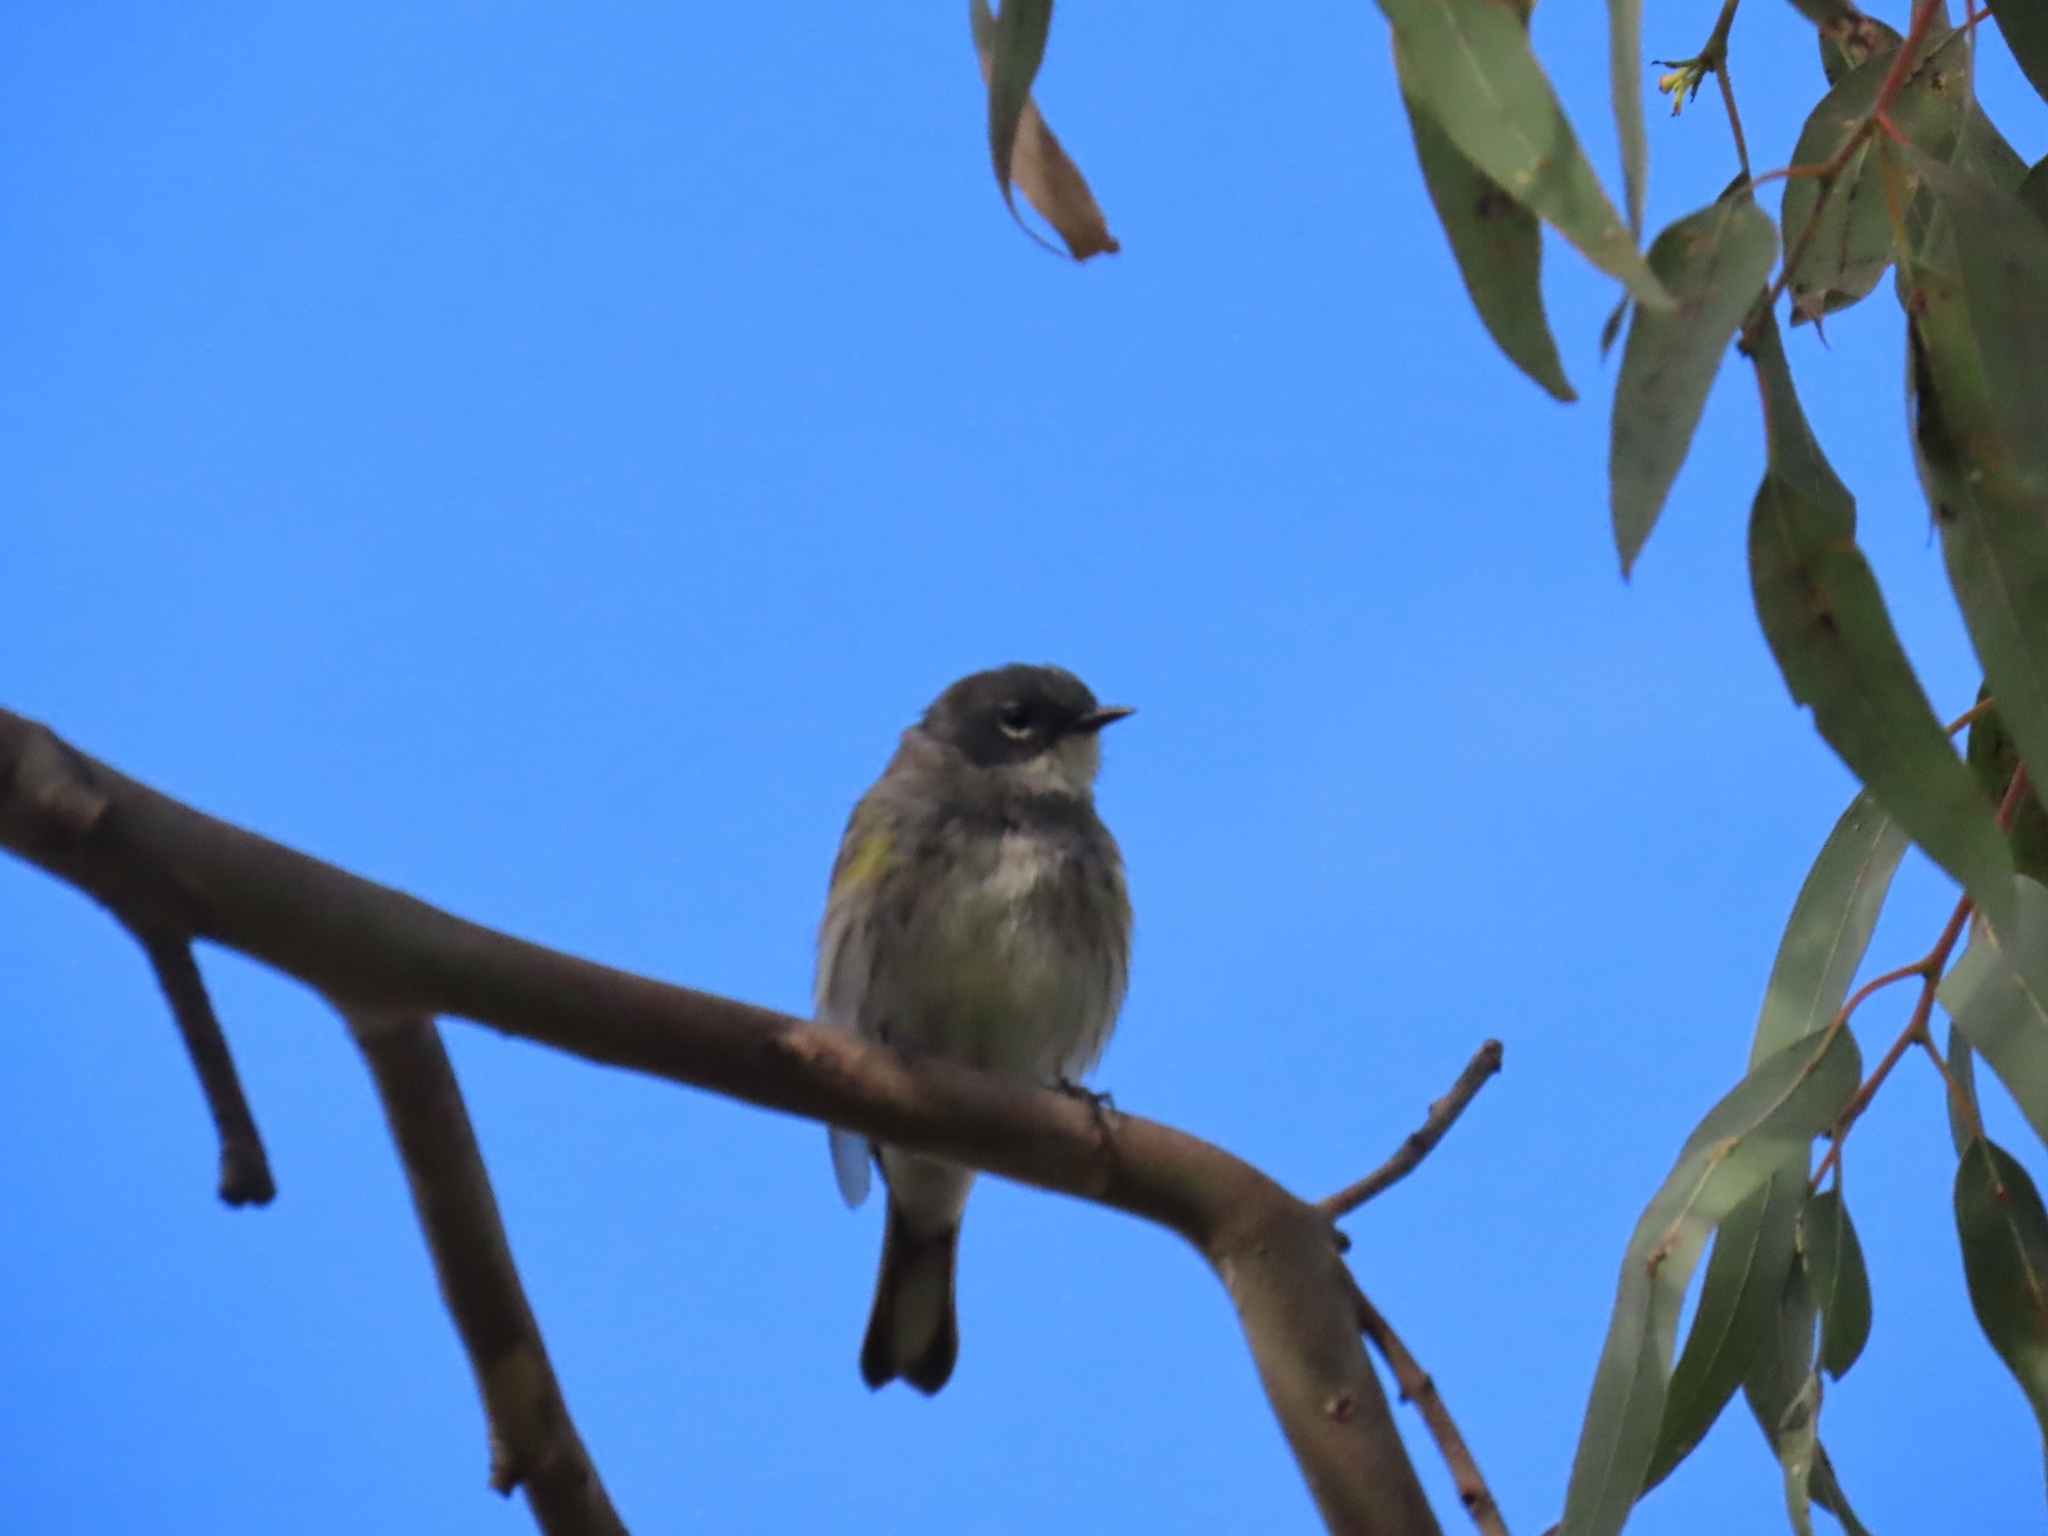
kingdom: Animalia
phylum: Chordata
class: Aves
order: Passeriformes
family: Parulidae
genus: Setophaga
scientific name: Setophaga coronata
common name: Myrtle warbler
